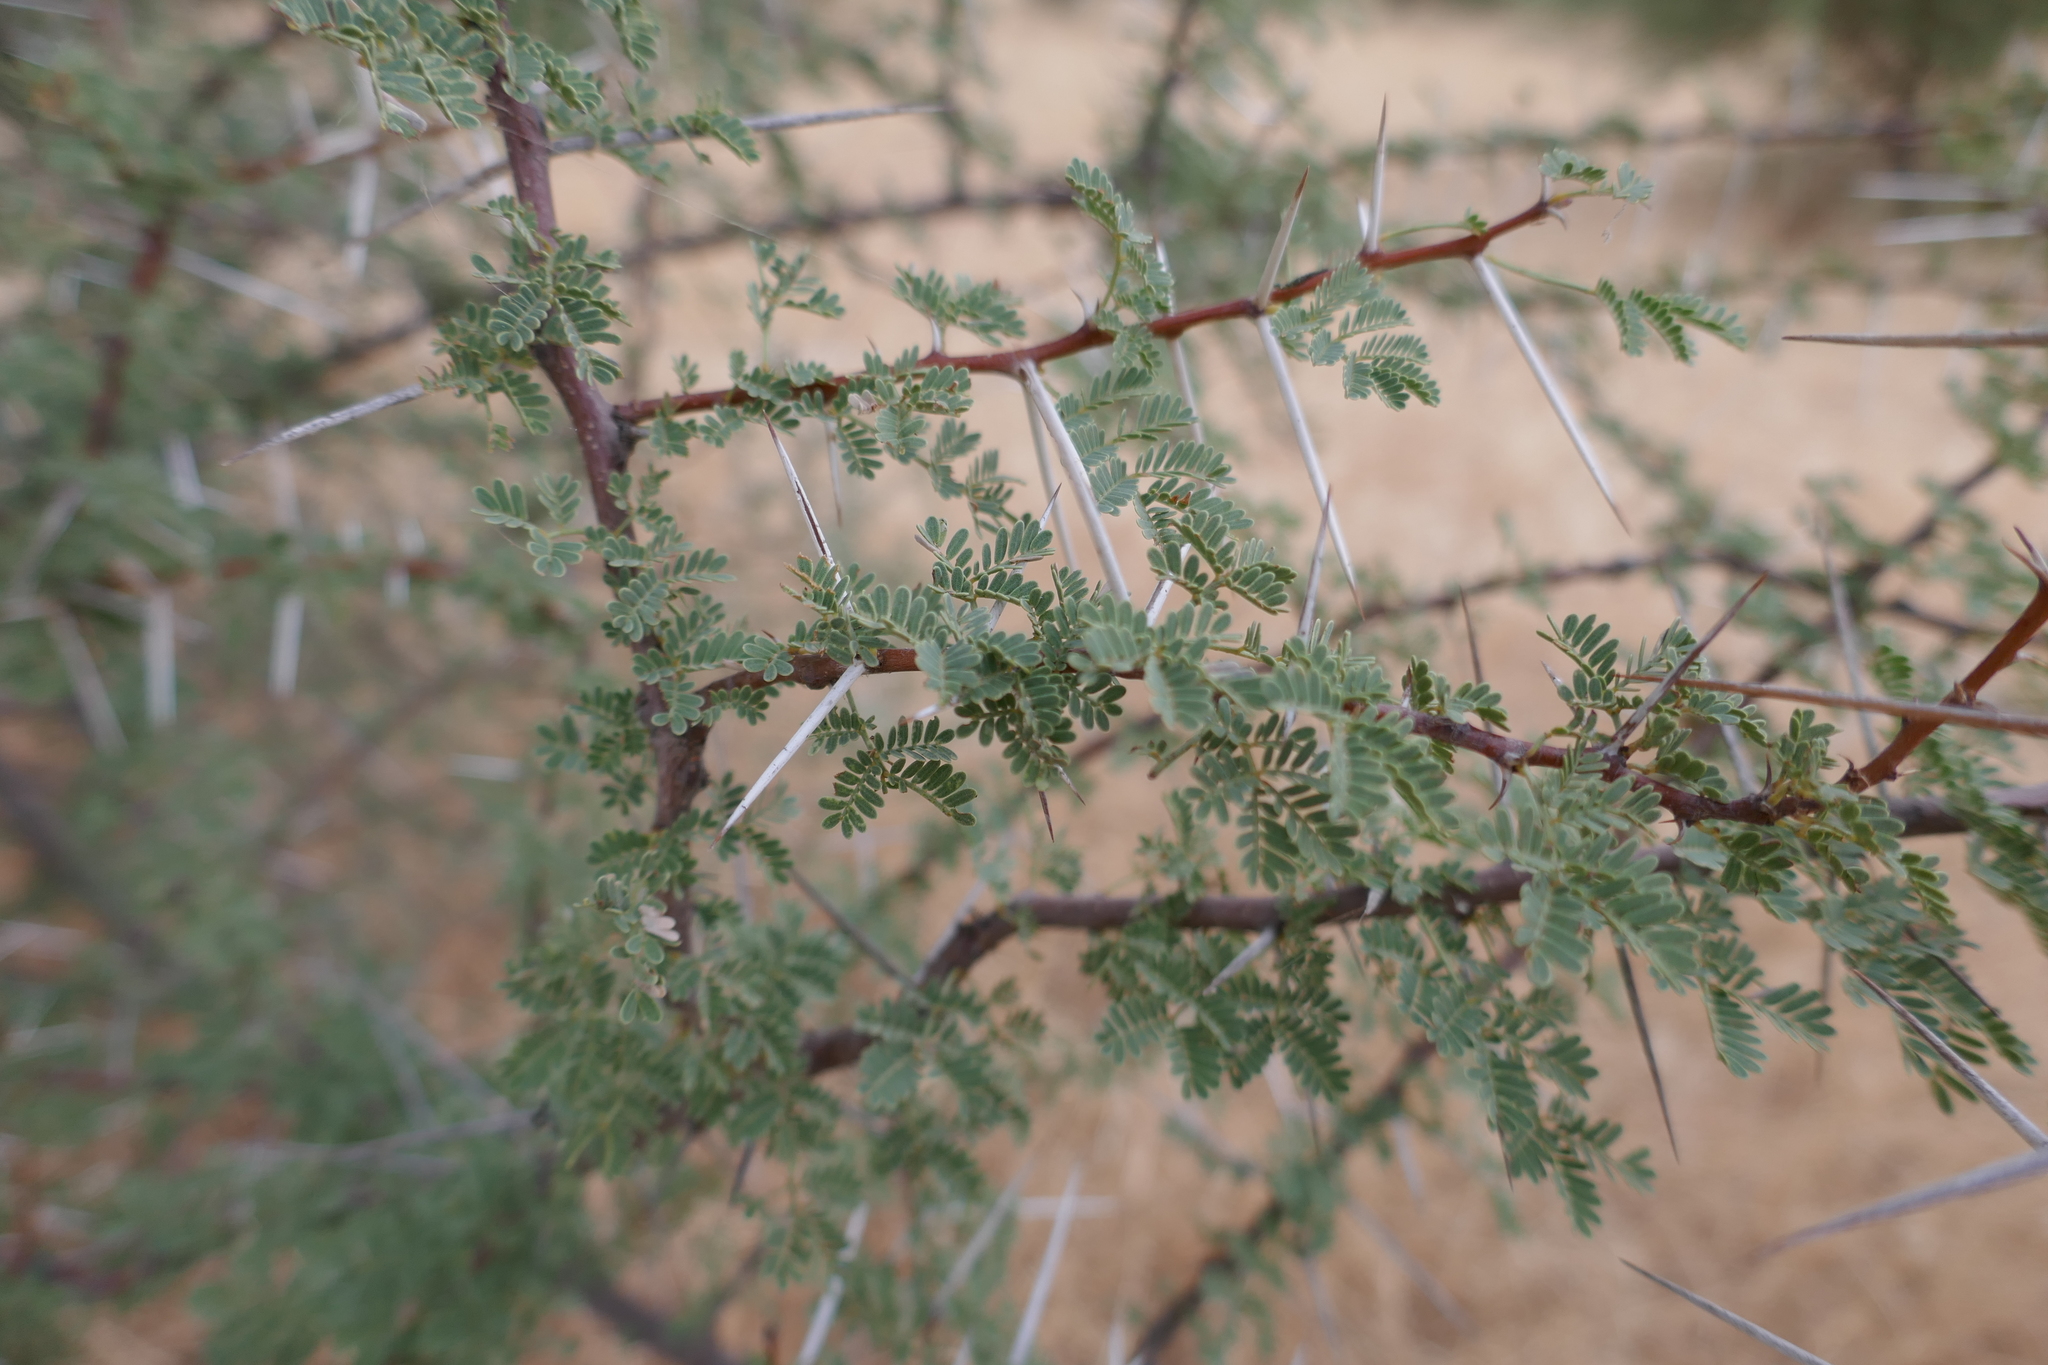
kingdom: Plantae
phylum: Tracheophyta
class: Magnoliopsida
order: Fabales
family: Fabaceae
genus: Vachellia
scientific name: Vachellia seyal
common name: Thirtythorn
